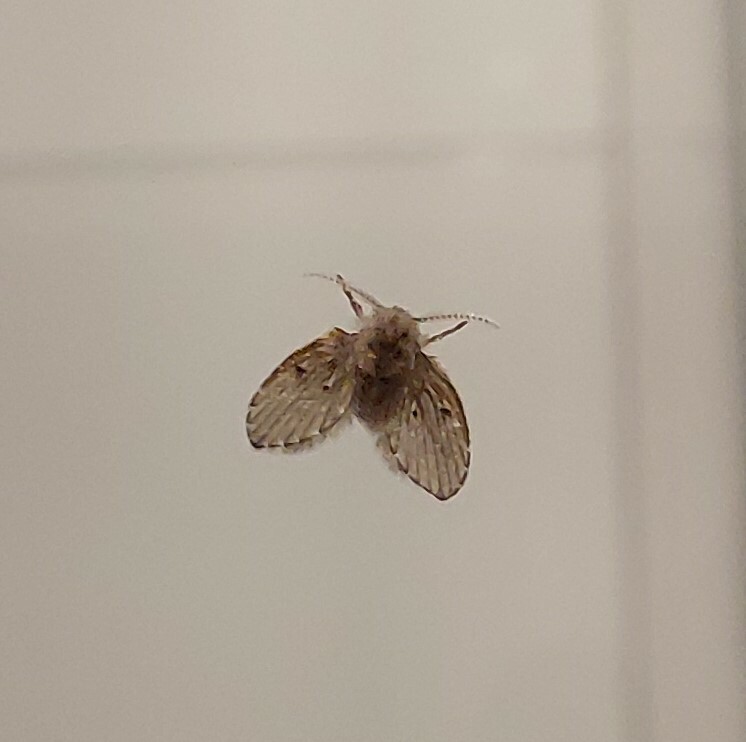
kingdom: Animalia
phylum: Arthropoda
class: Insecta
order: Diptera
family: Psychodidae
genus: Clogmia
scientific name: Clogmia albipunctatus
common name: White-spotted moth fly
